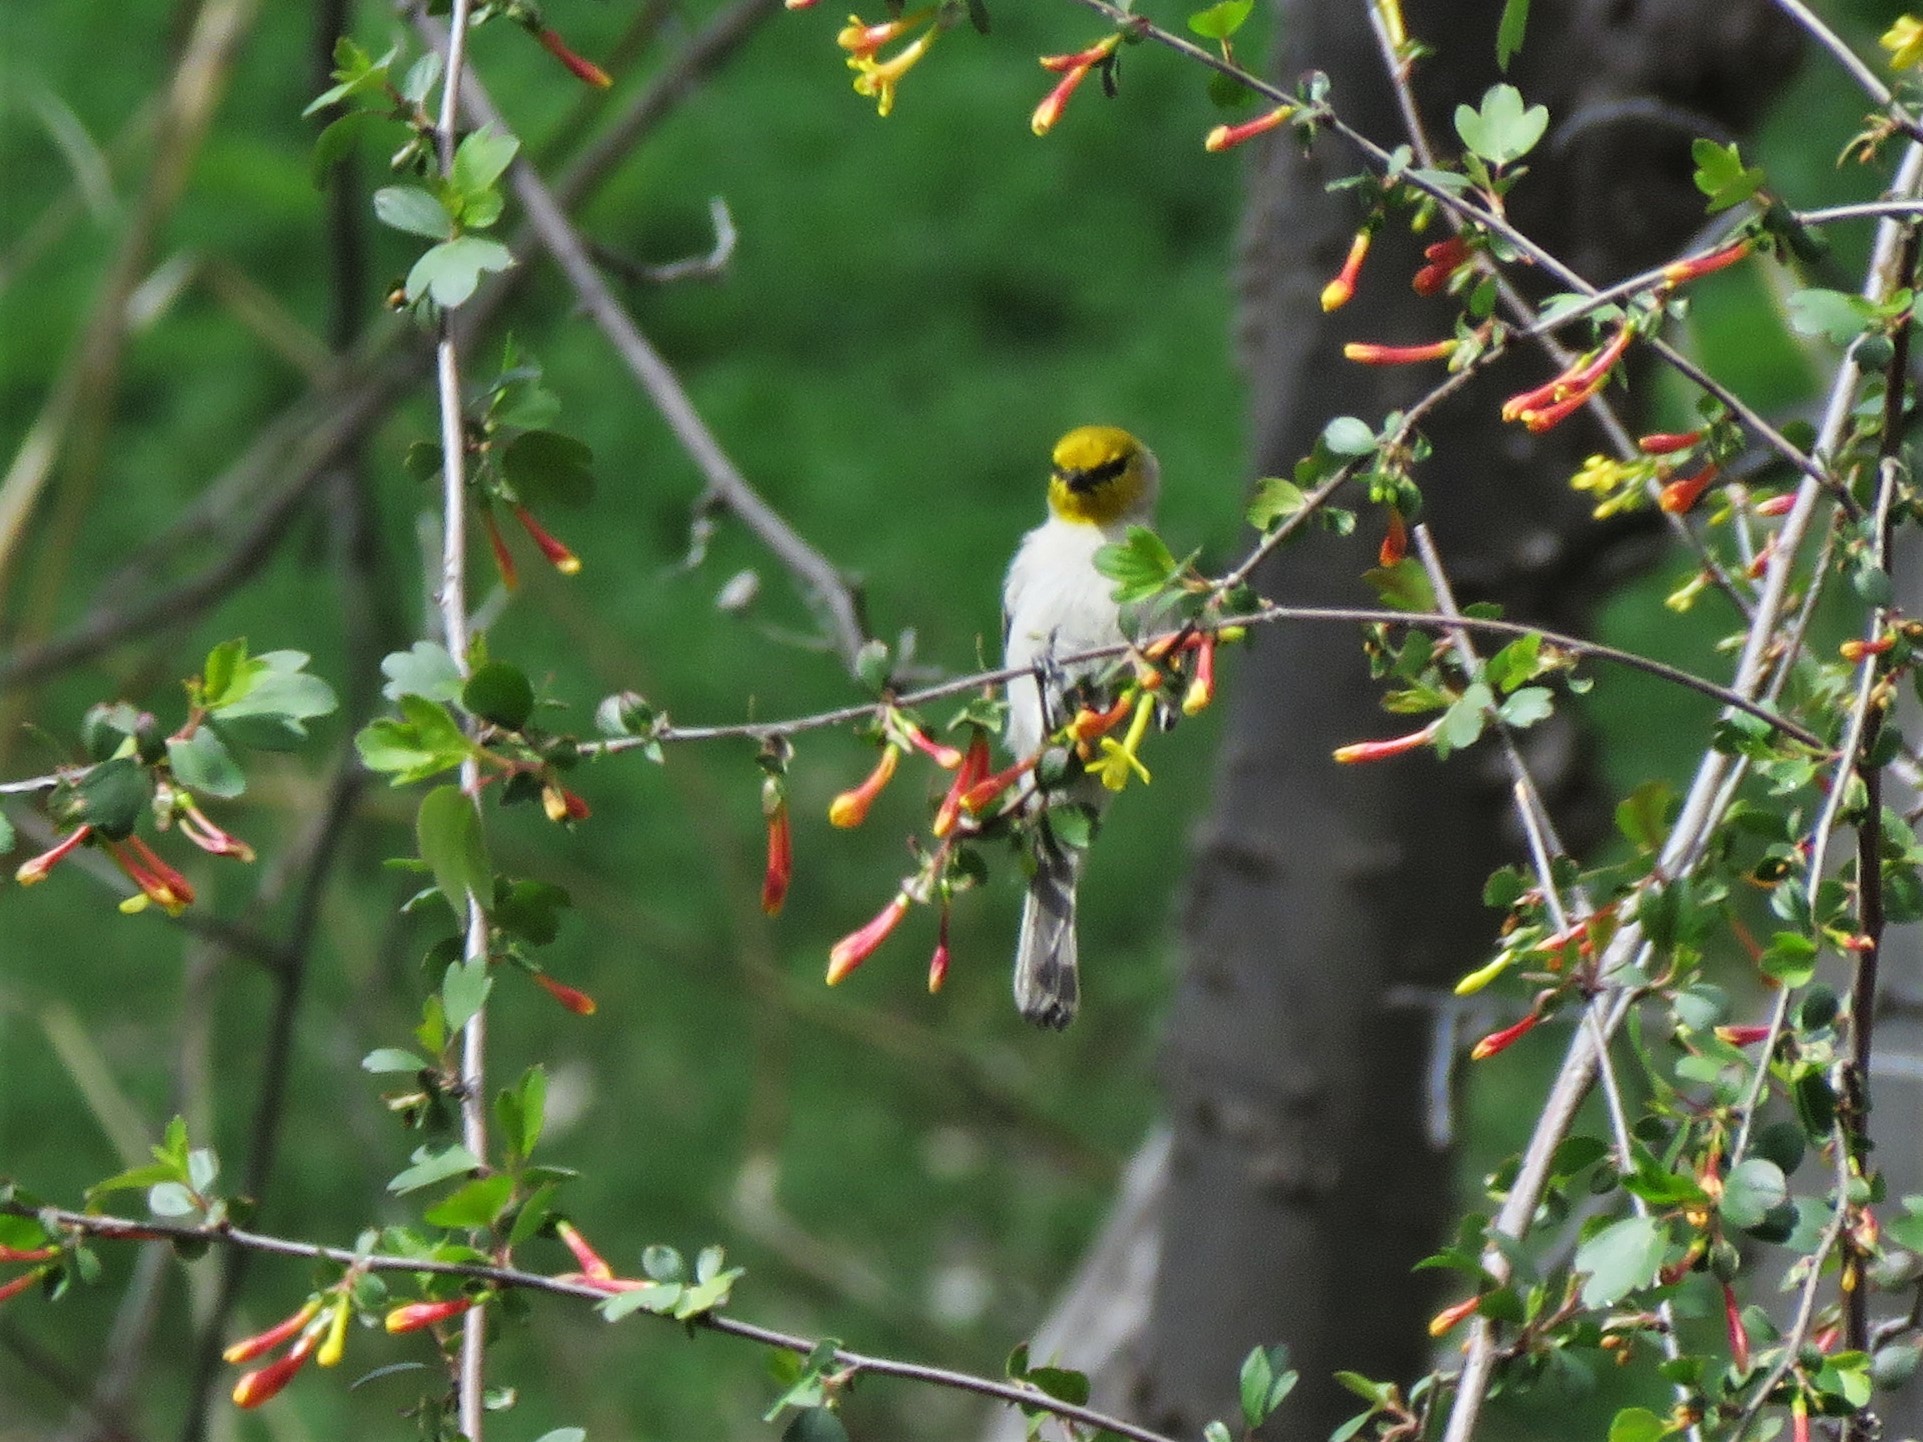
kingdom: Animalia
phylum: Chordata
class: Aves
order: Passeriformes
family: Remizidae
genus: Auriparus
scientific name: Auriparus flaviceps
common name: Verdin
